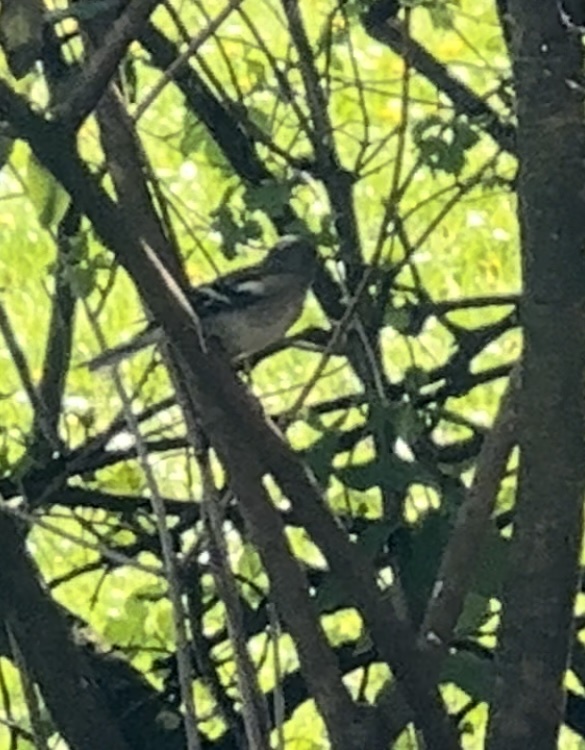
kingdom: Animalia
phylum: Chordata
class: Aves
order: Passeriformes
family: Fringillidae
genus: Fringilla
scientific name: Fringilla coelebs
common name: Common chaffinch
